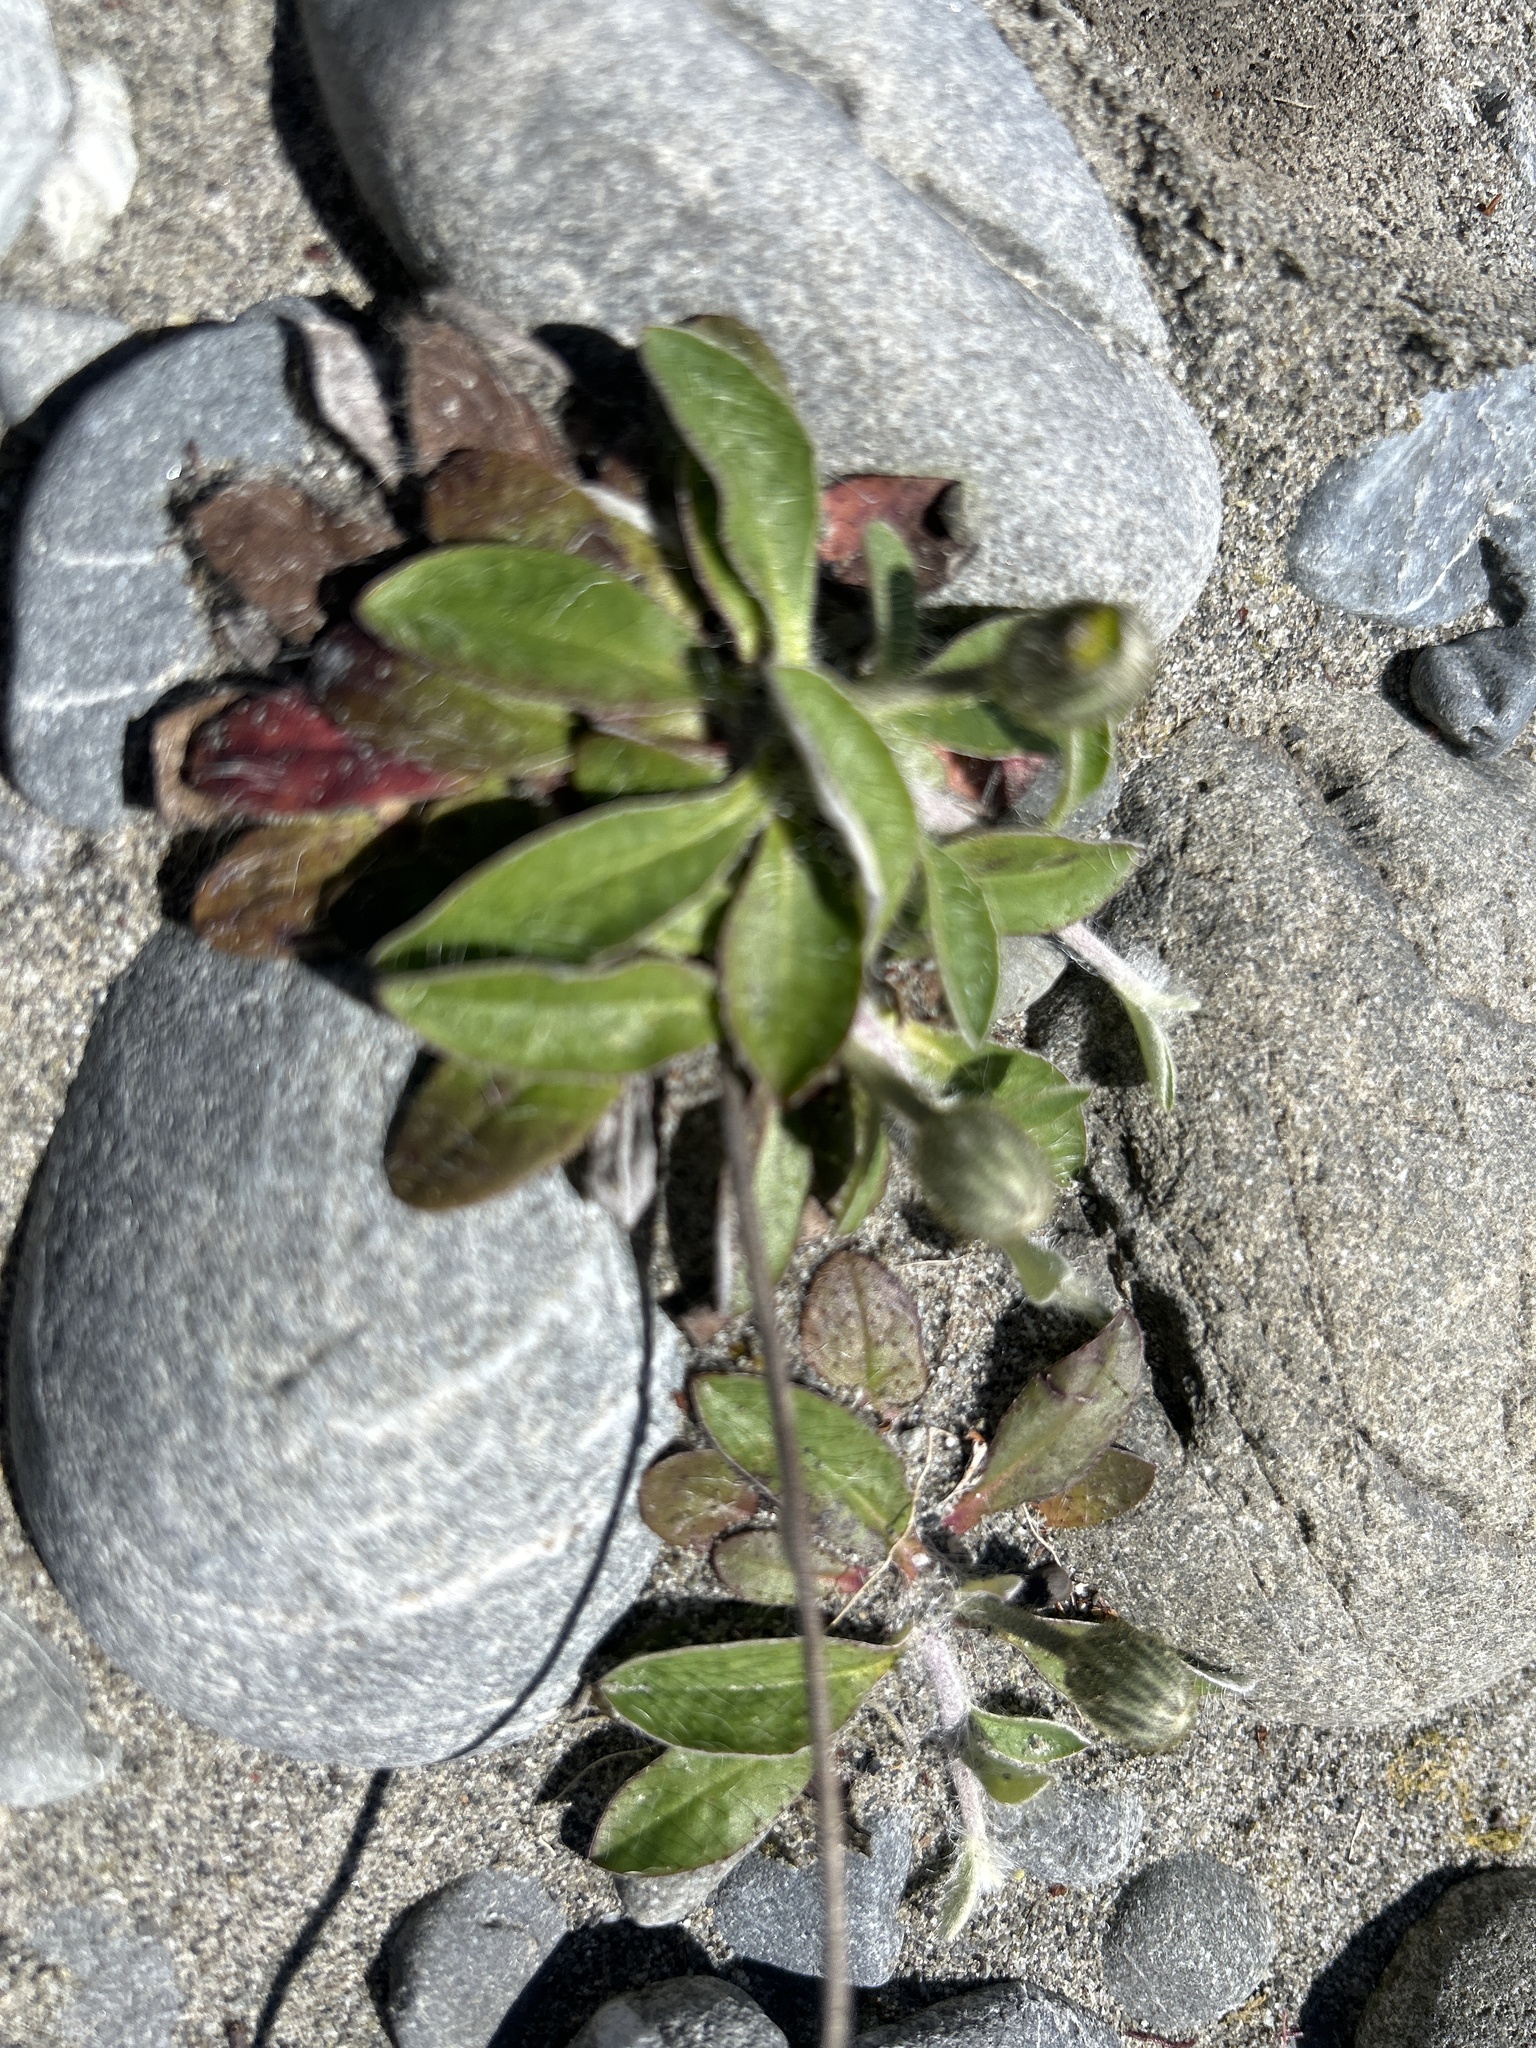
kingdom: Plantae
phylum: Tracheophyta
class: Magnoliopsida
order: Asterales
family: Asteraceae
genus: Pilosella
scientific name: Pilosella officinarum
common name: Mouse-ear hawkweed
